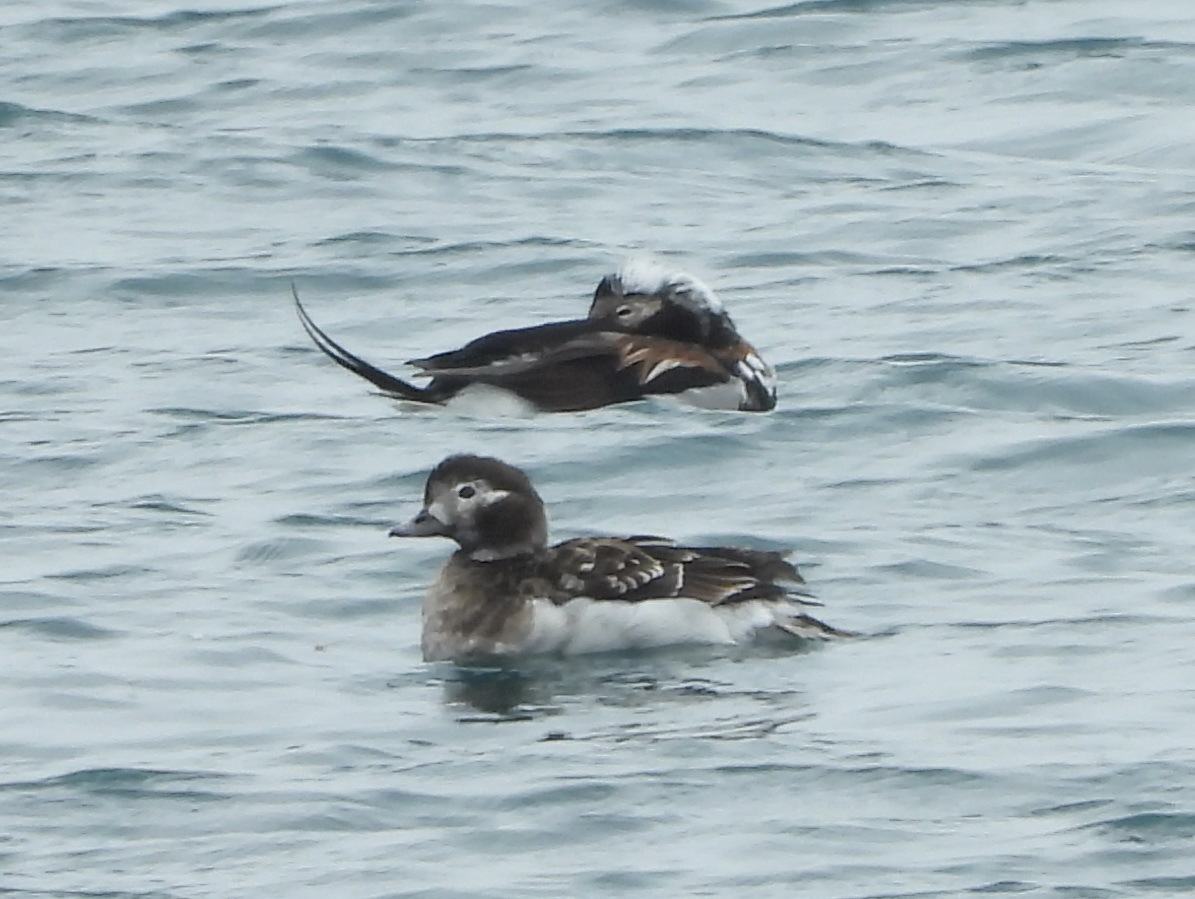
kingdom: Animalia
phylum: Chordata
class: Aves
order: Anseriformes
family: Anatidae
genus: Clangula
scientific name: Clangula hyemalis
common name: Long-tailed duck
